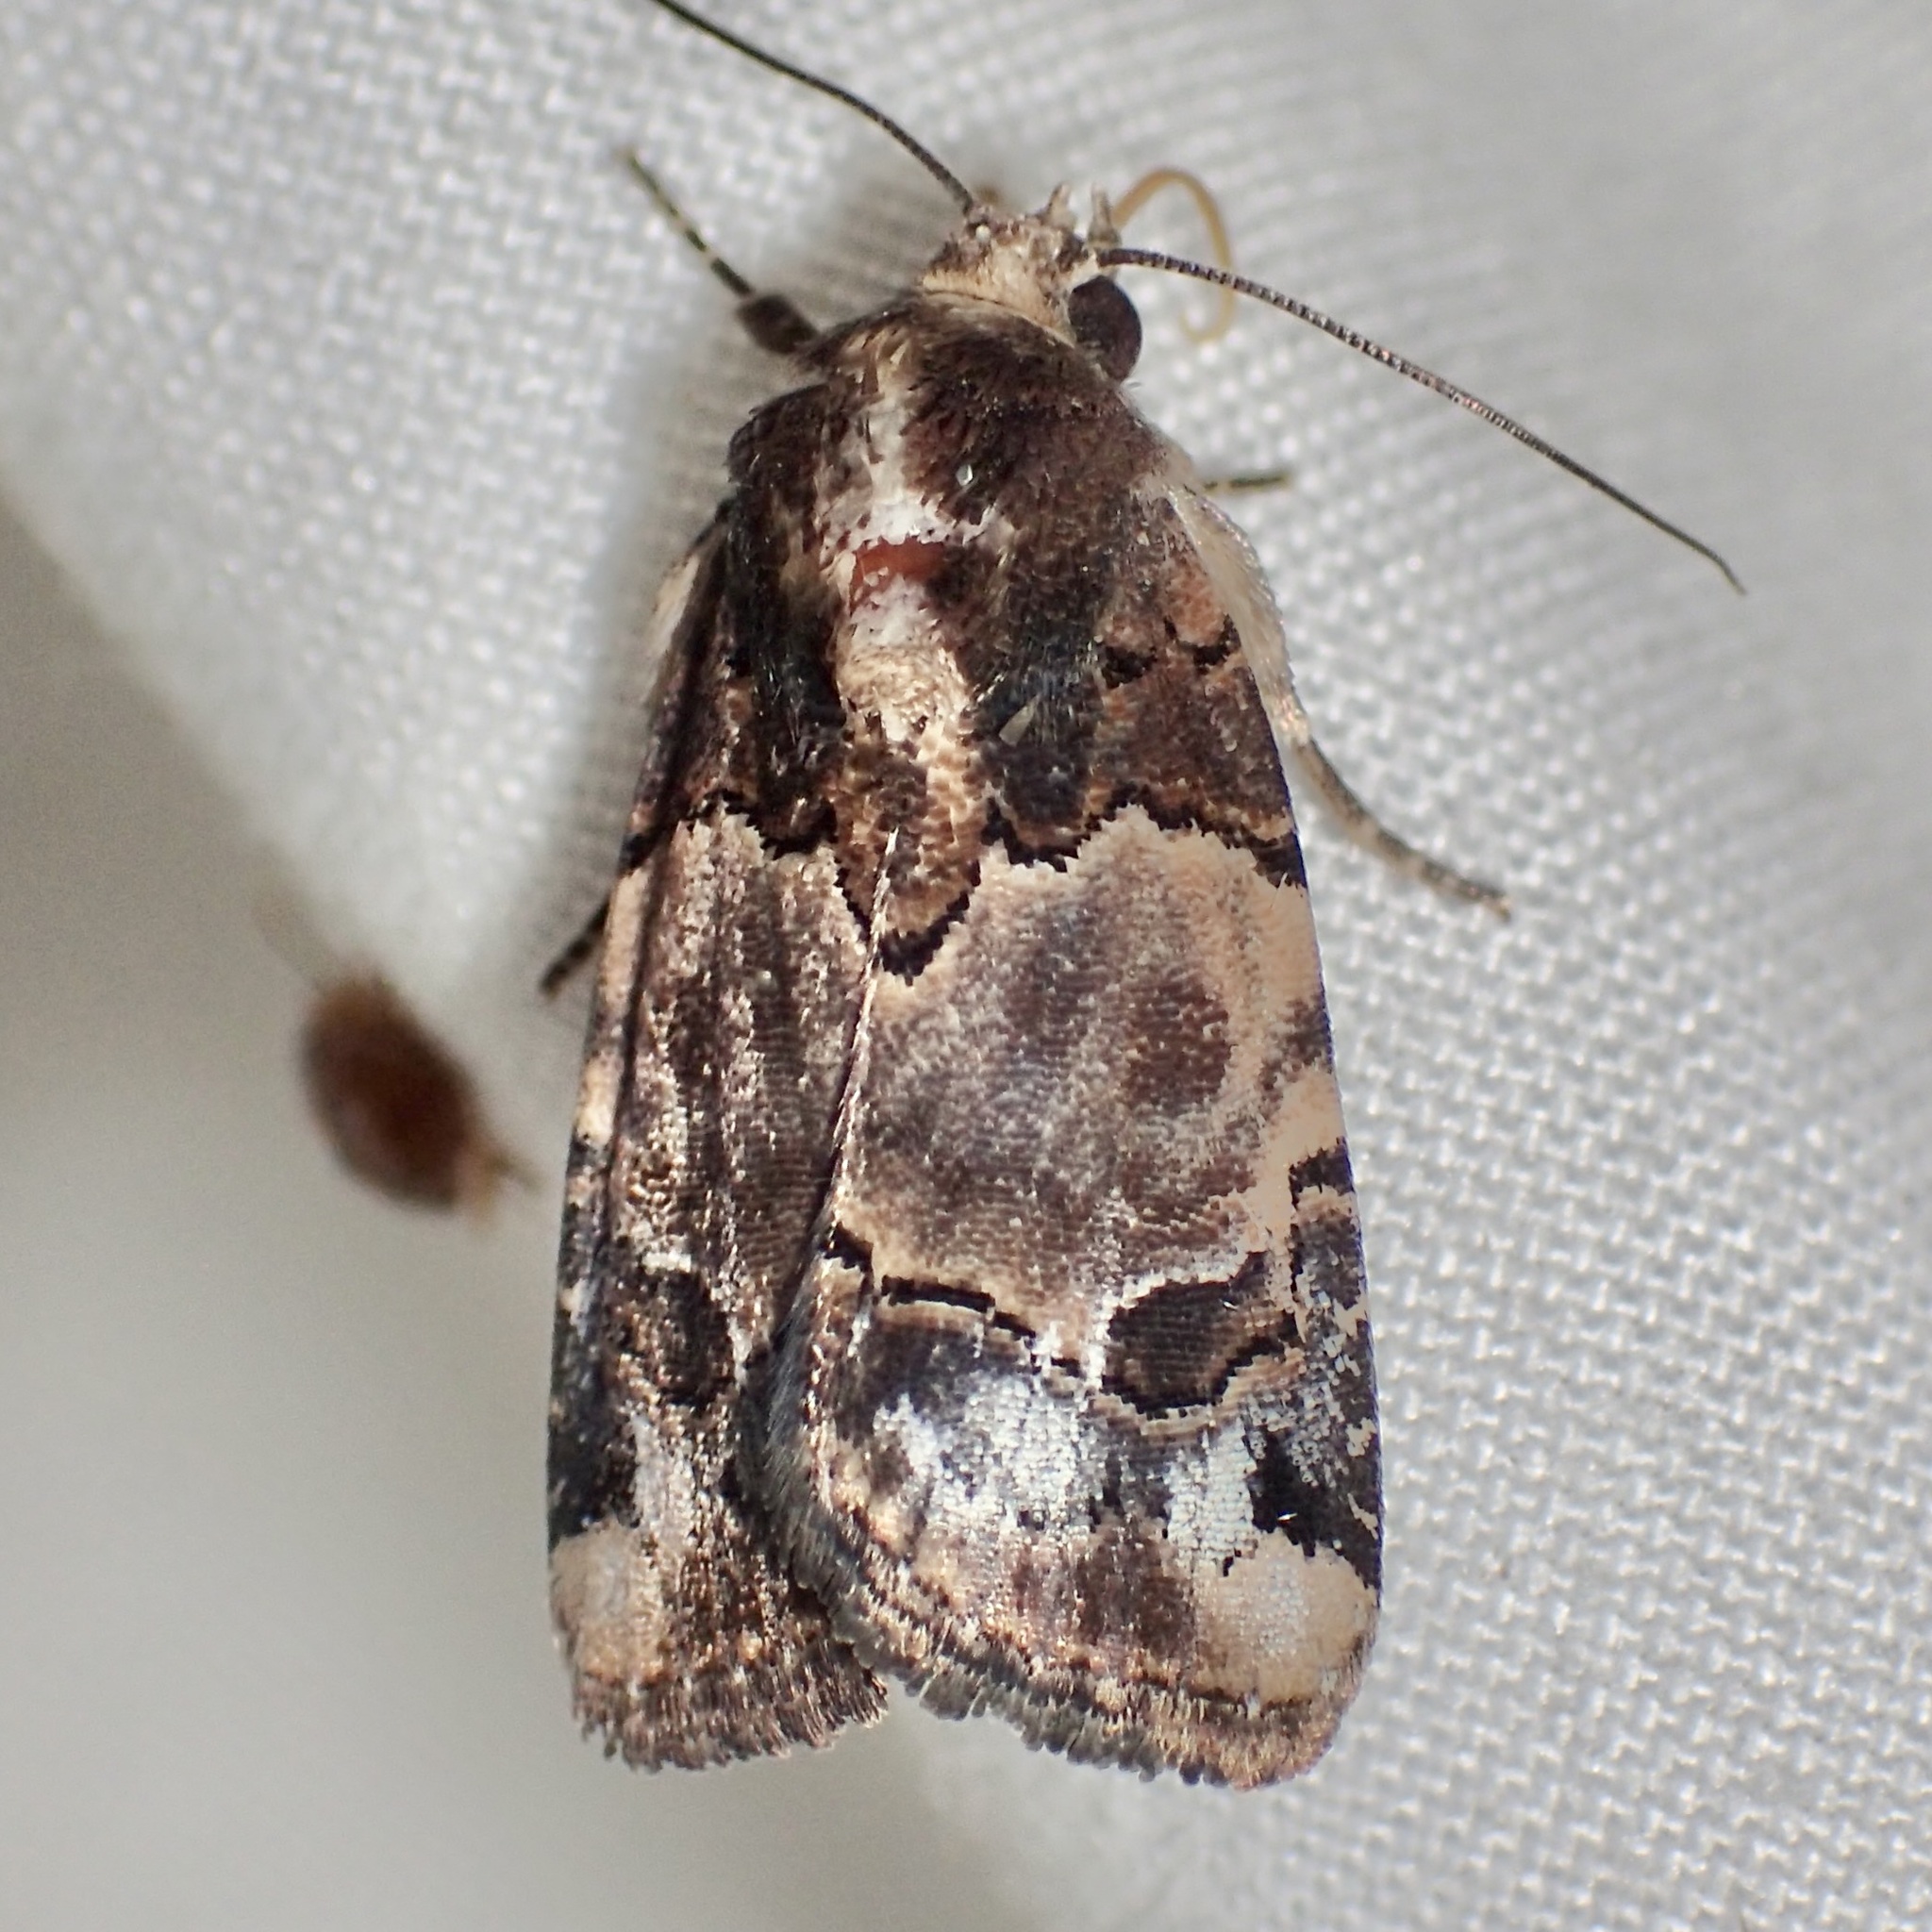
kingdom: Animalia
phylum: Arthropoda
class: Insecta
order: Lepidoptera
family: Noctuidae
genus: Bryolymnia
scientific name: Bryolymnia biformata
